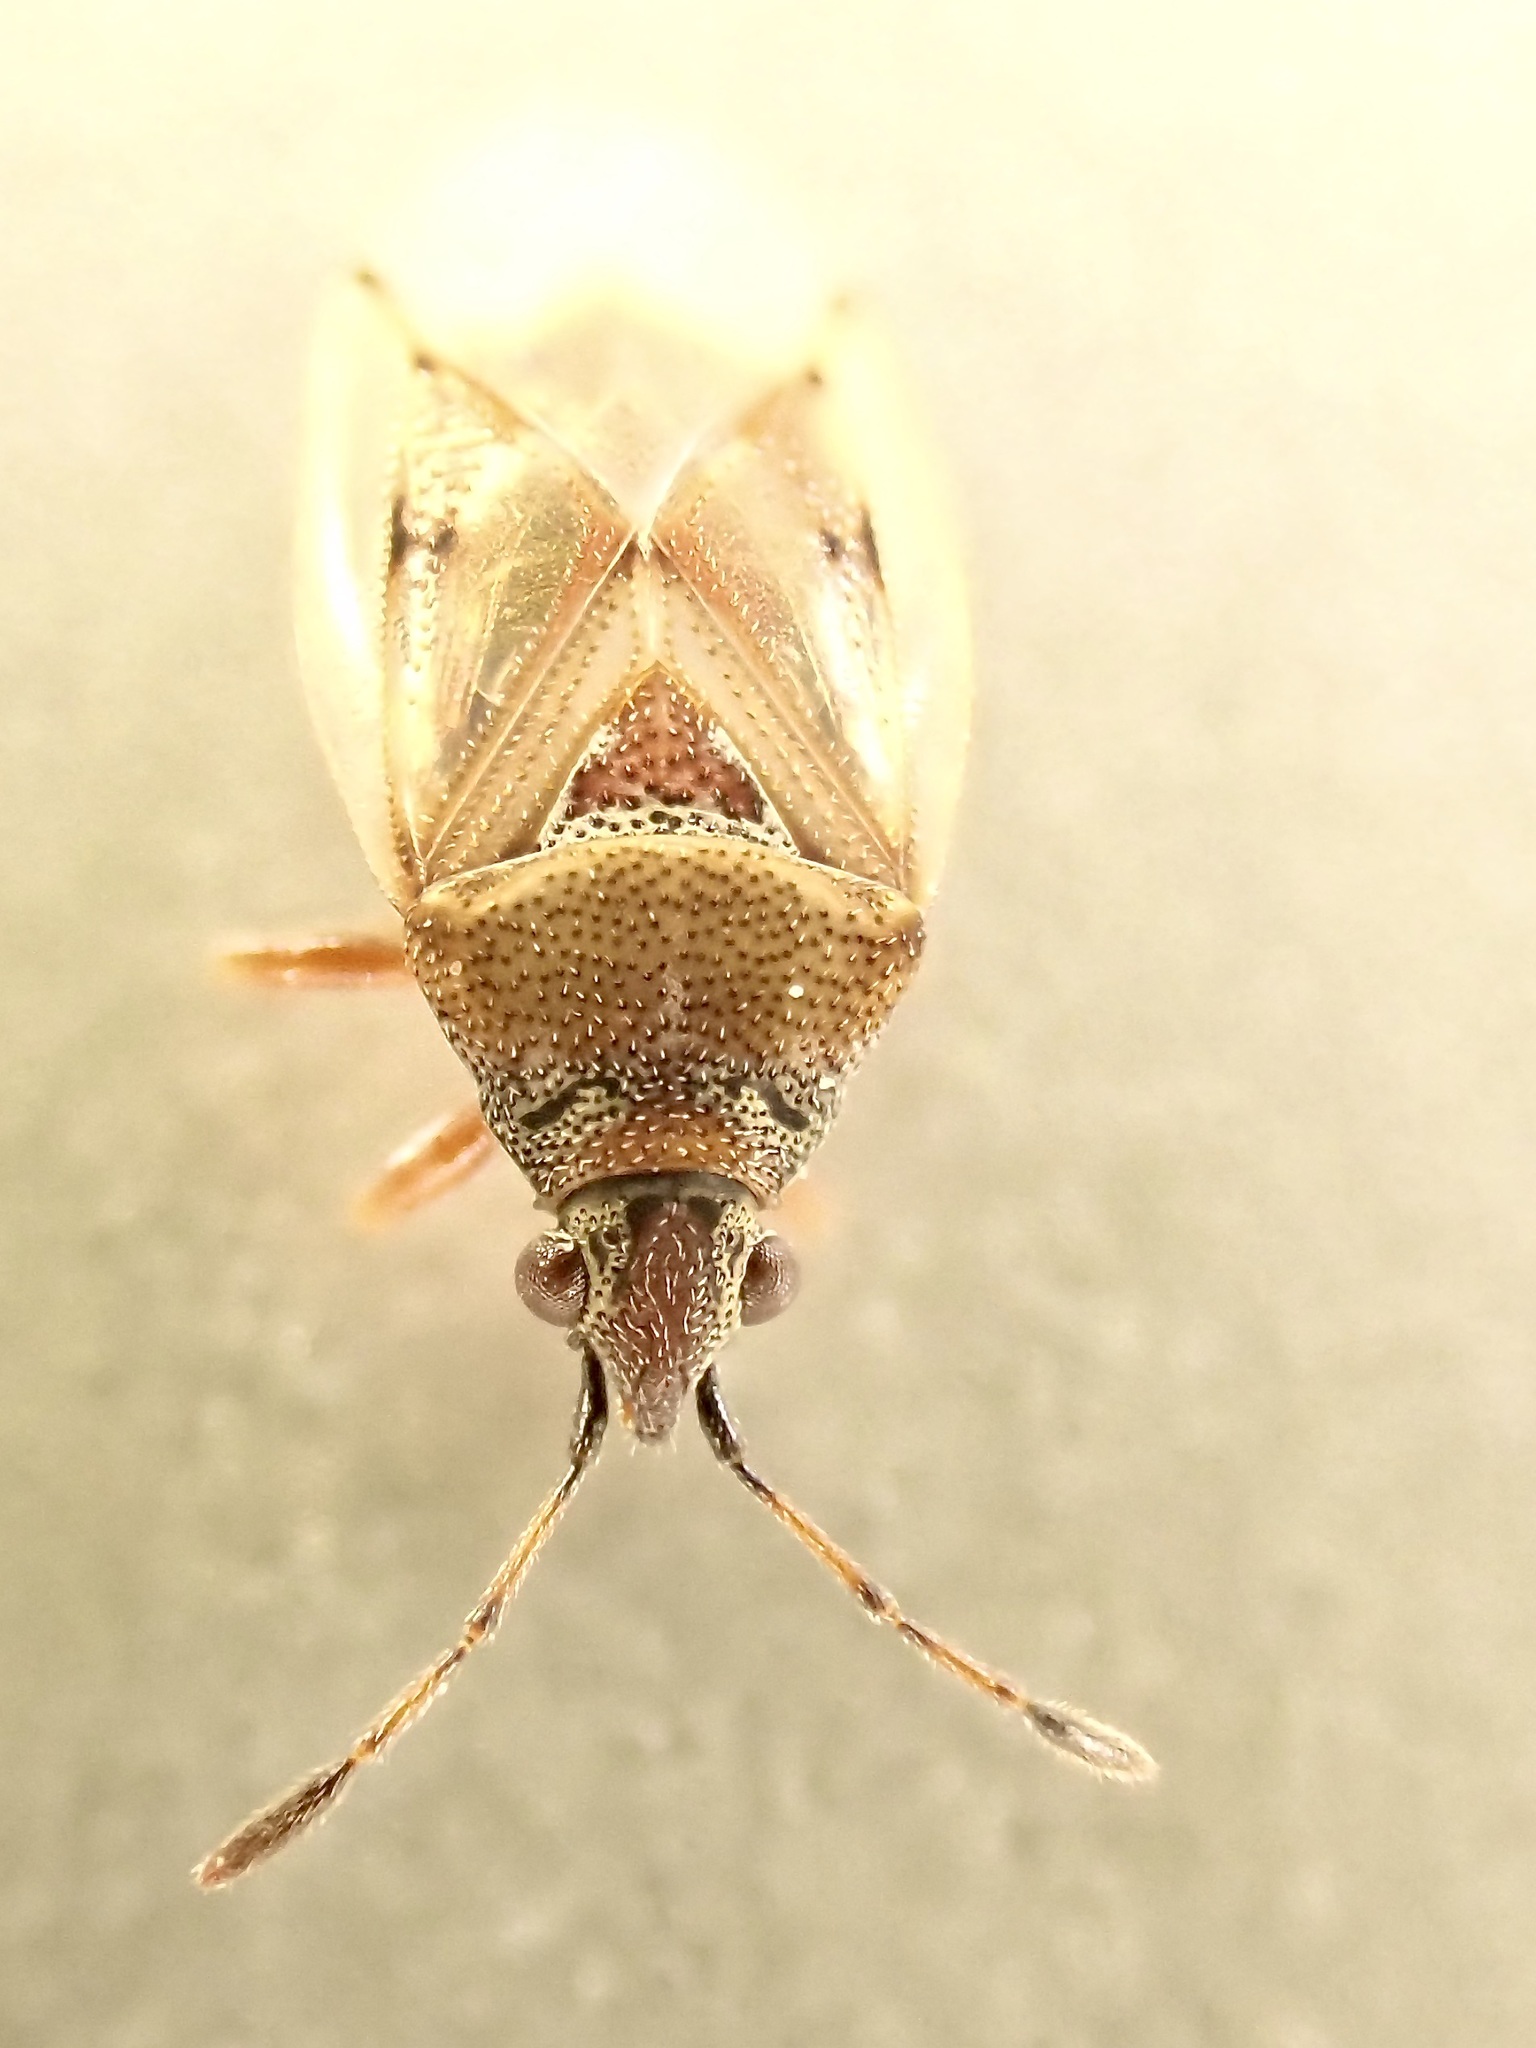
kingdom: Animalia
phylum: Arthropoda
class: Insecta
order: Hemiptera
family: Lygaeidae
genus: Kleidocerys
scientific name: Kleidocerys resedae
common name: Birch catkin bug
